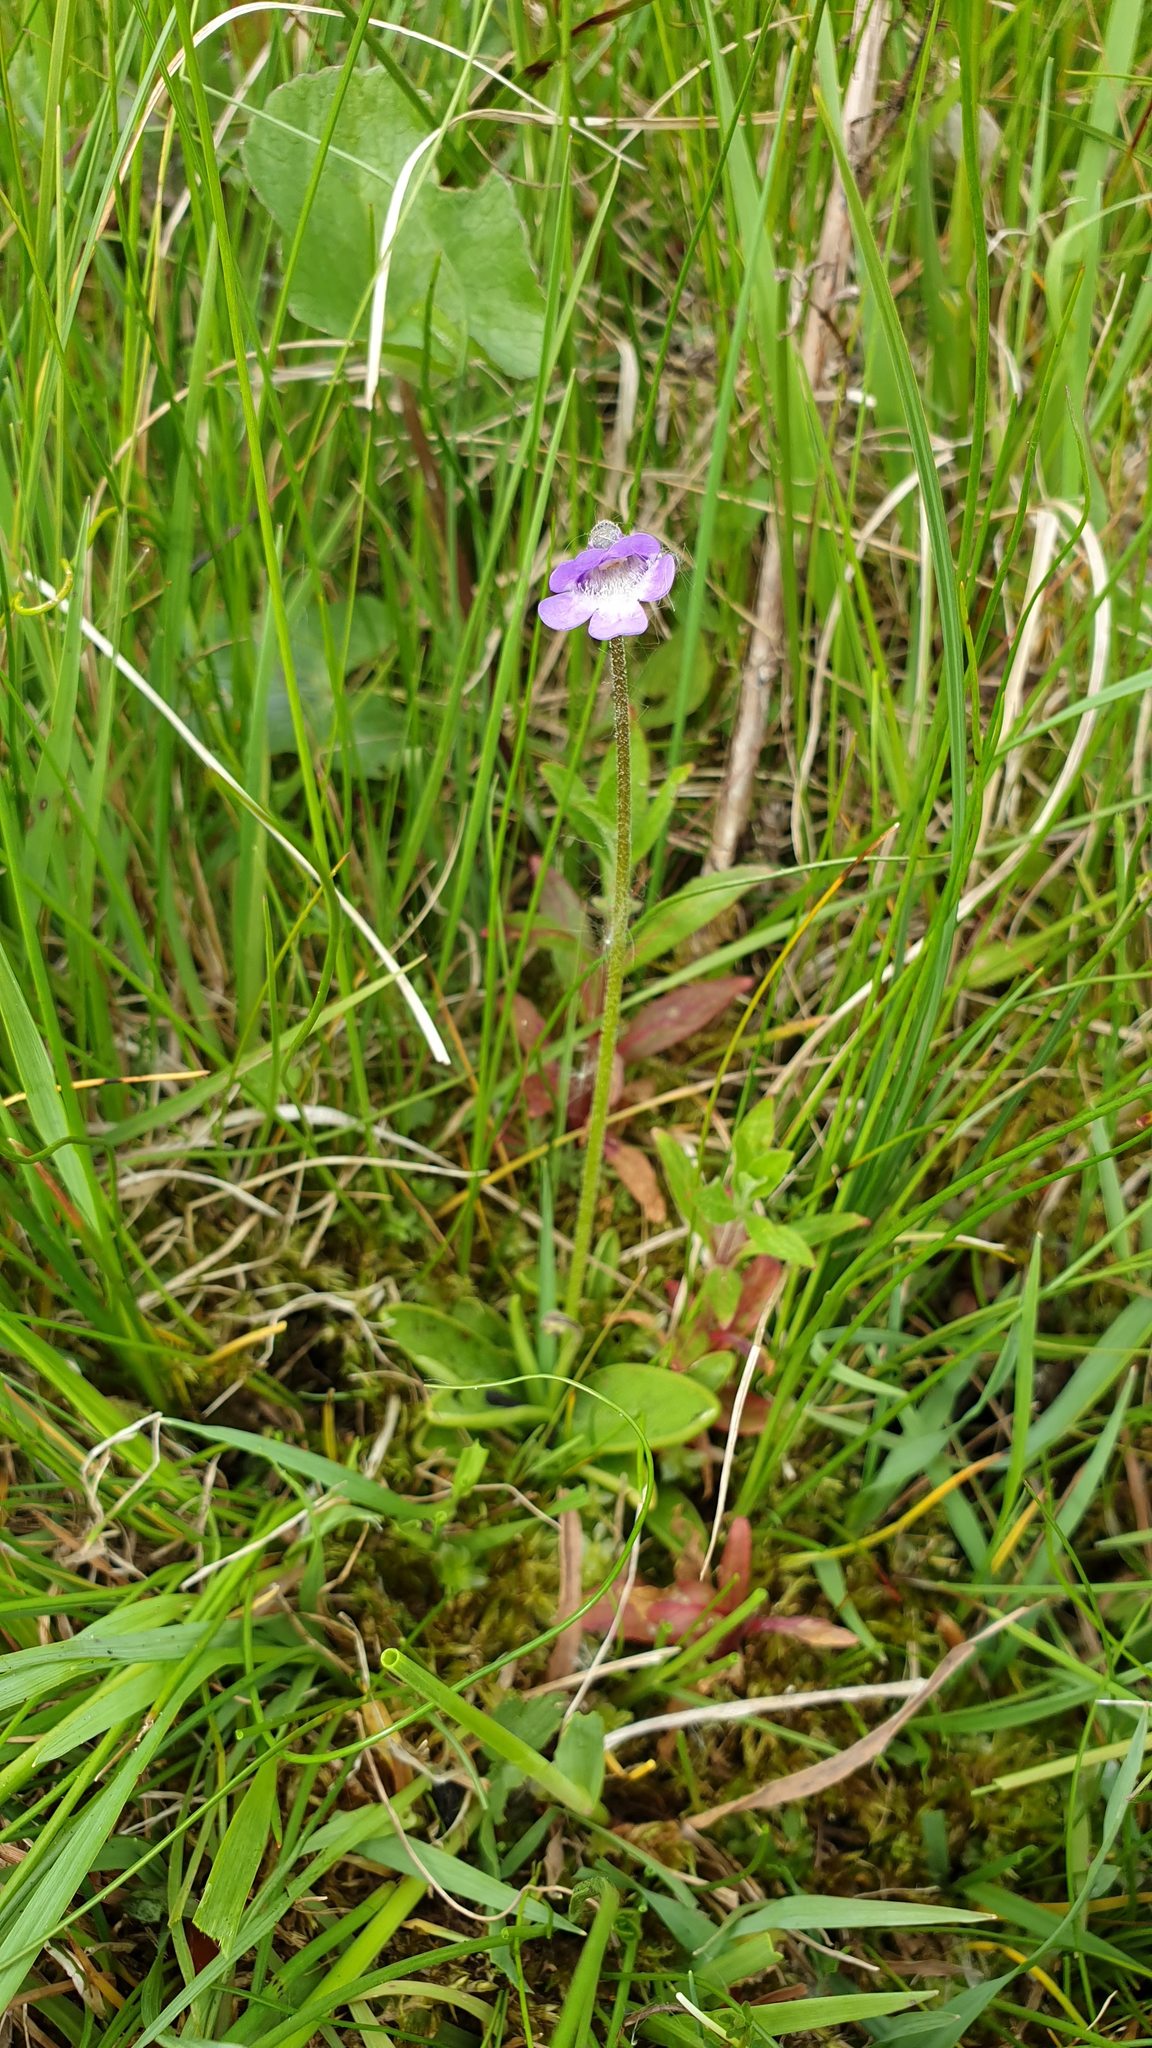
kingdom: Plantae
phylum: Tracheophyta
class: Magnoliopsida
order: Lamiales
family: Lentibulariaceae
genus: Pinguicula
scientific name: Pinguicula vulgaris
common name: Common butterwort
